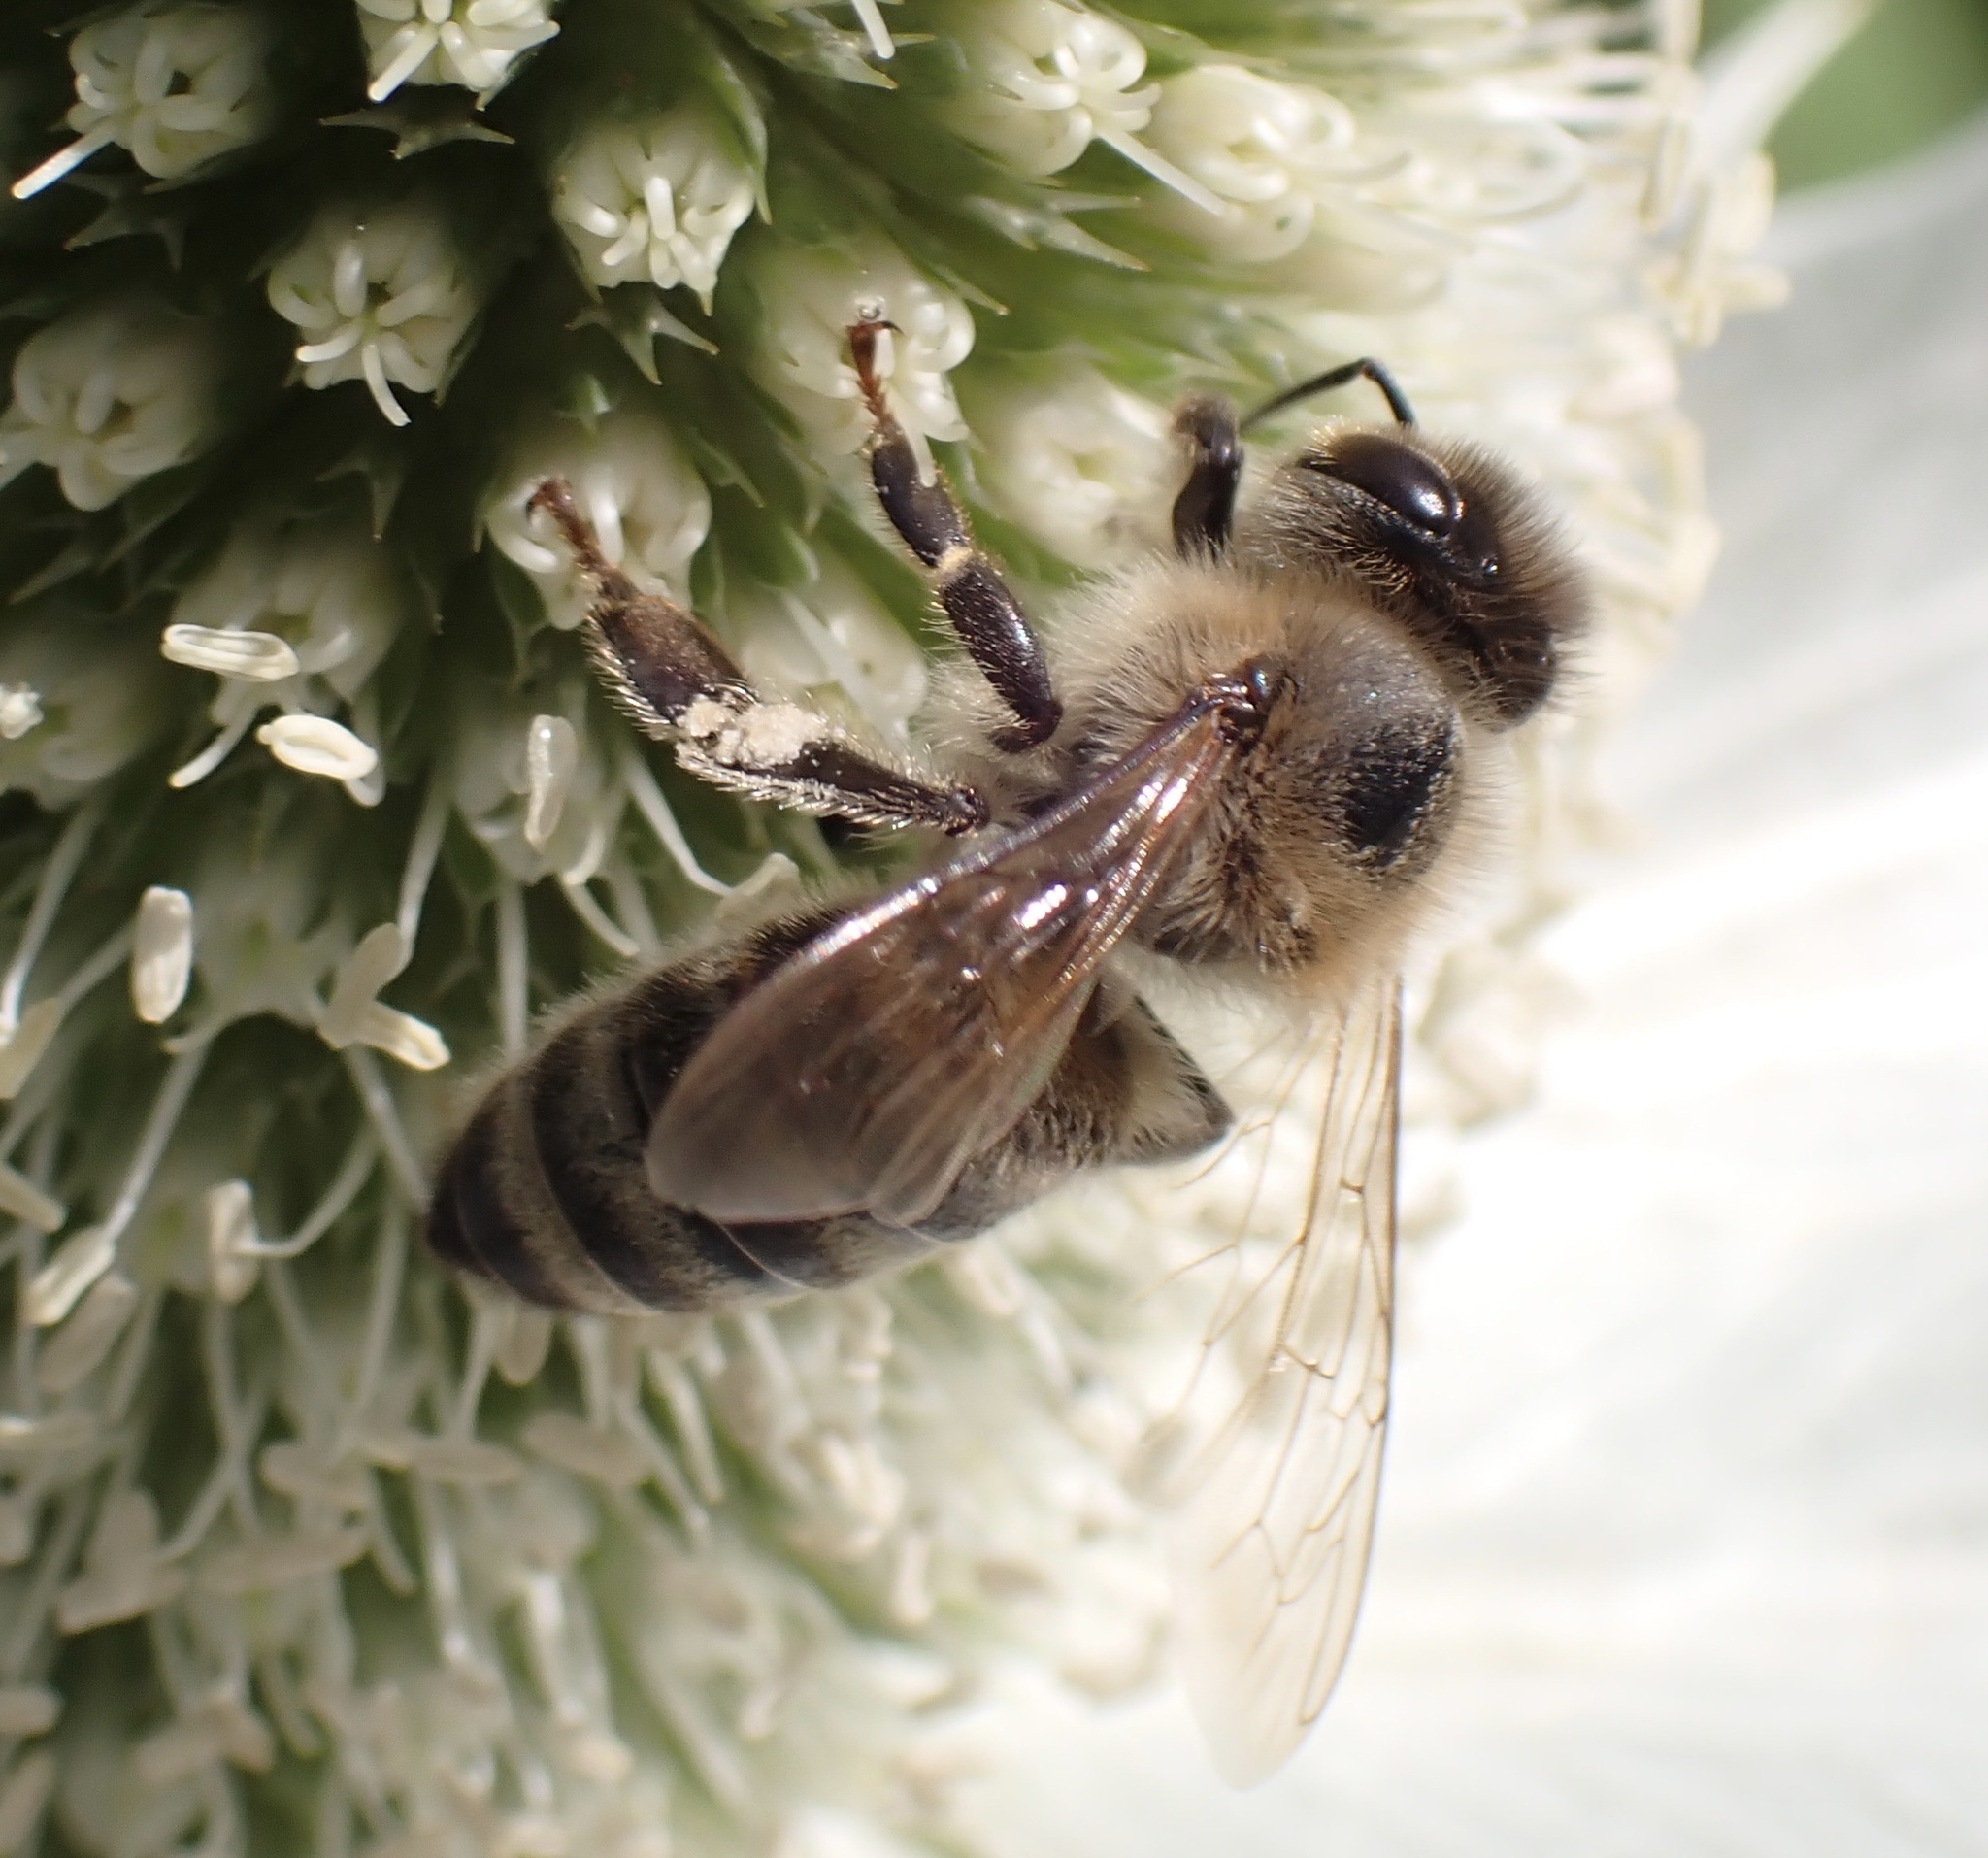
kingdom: Animalia
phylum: Arthropoda
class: Insecta
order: Hymenoptera
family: Apidae
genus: Apis
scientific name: Apis mellifera
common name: Honey bee
